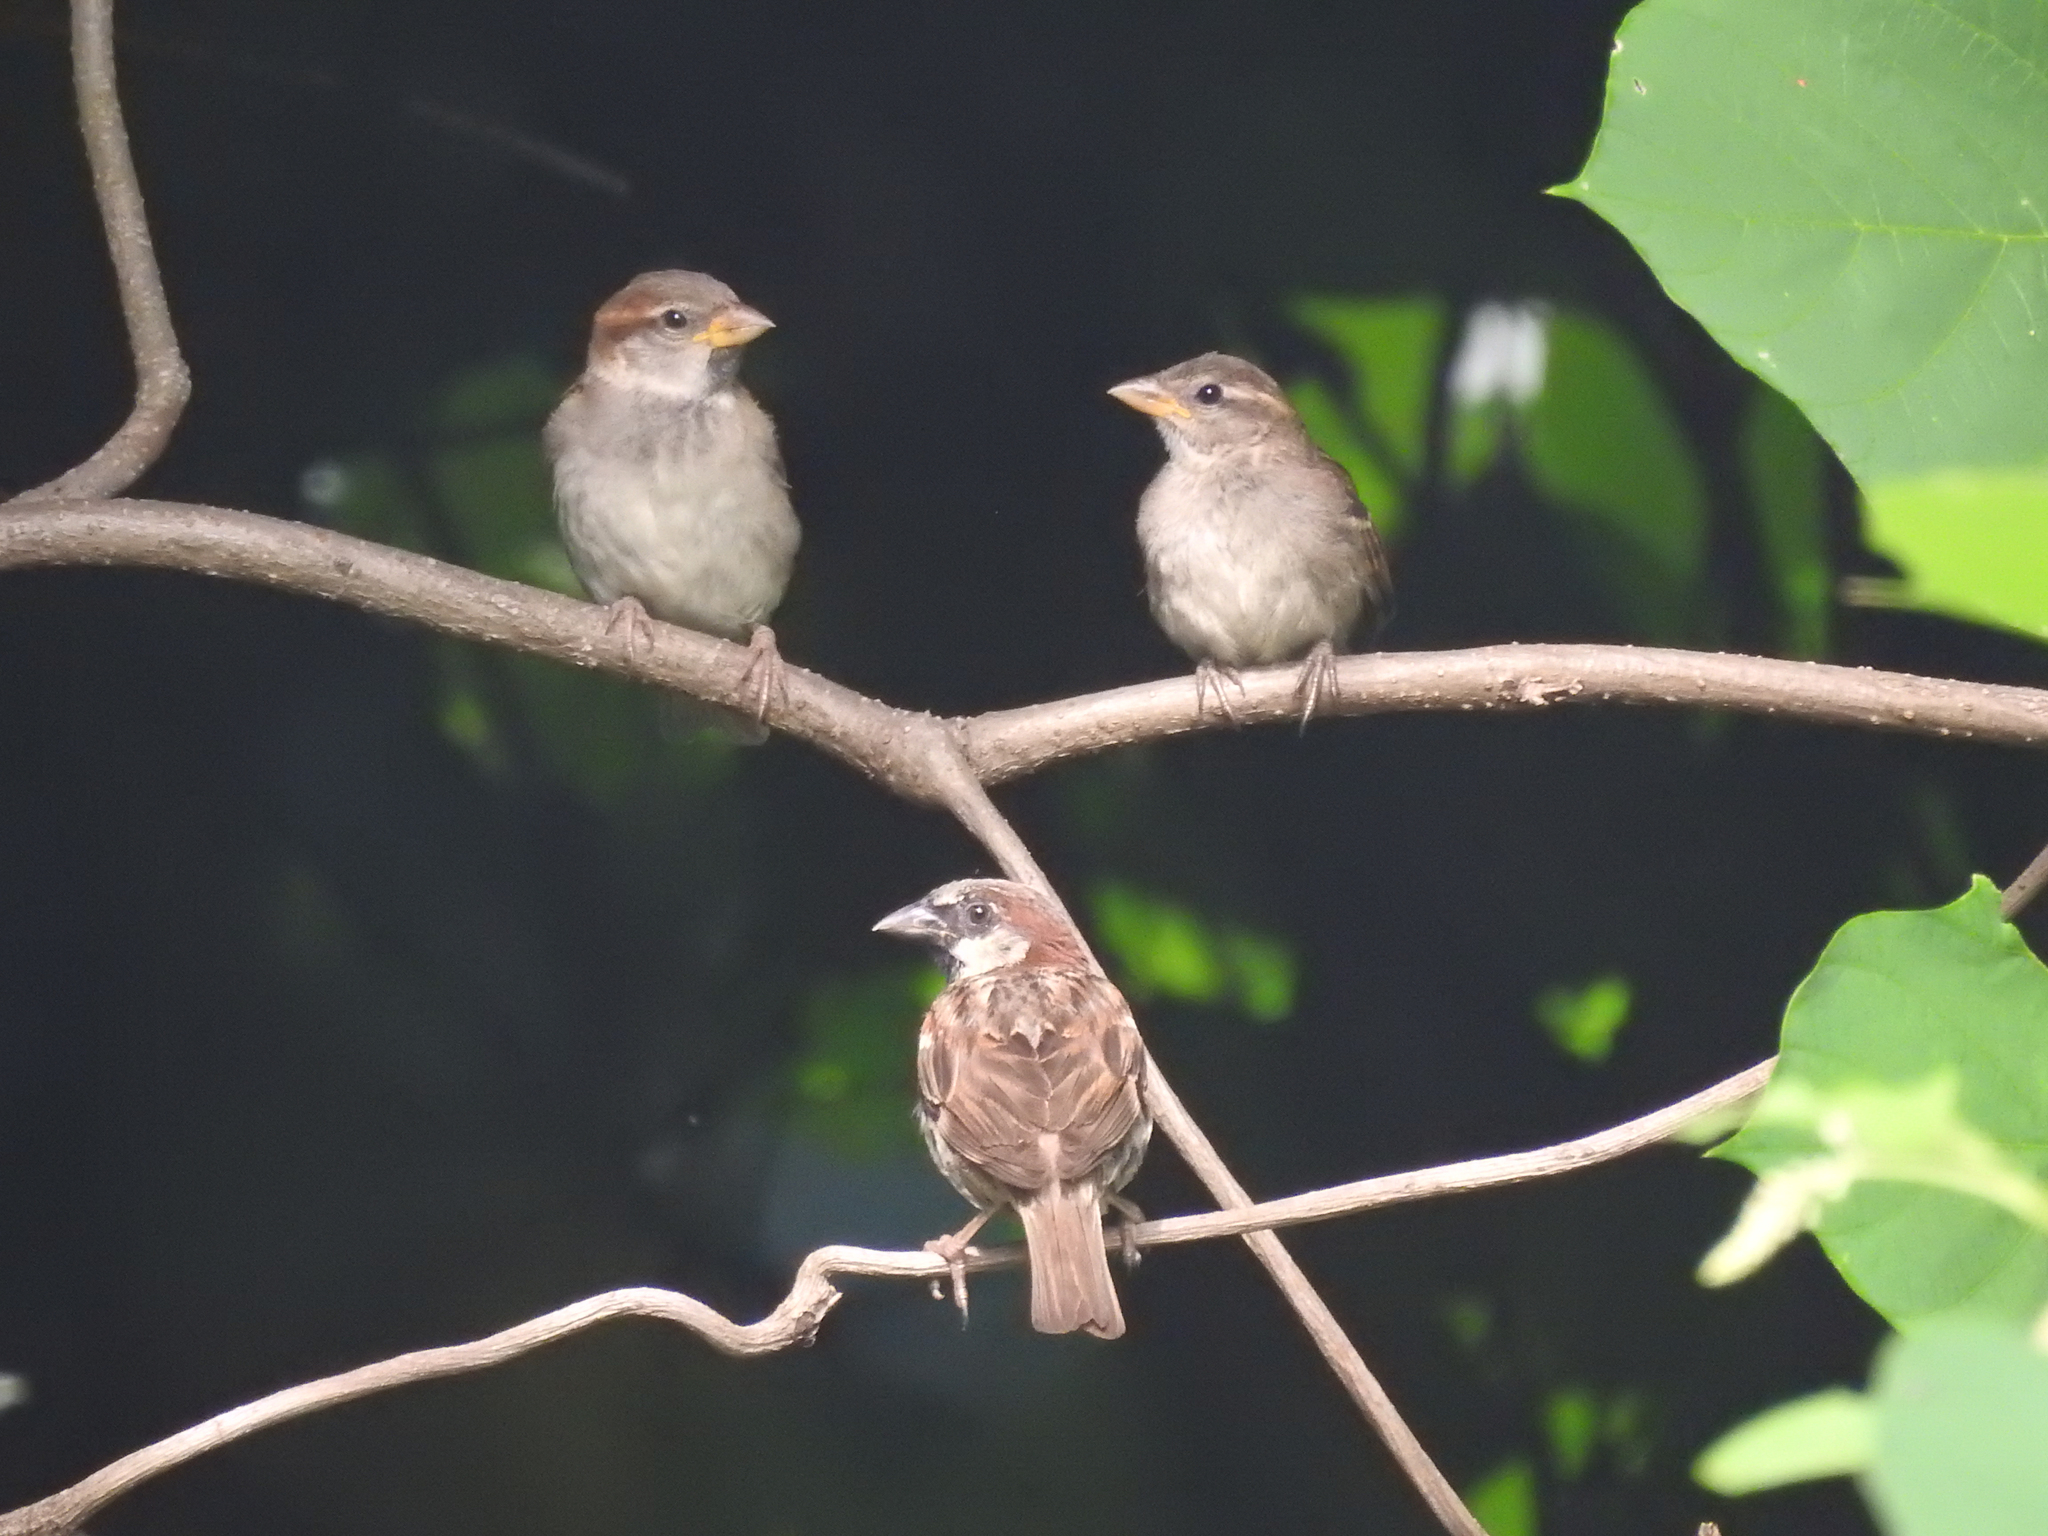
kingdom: Animalia
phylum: Chordata
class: Aves
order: Passeriformes
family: Passeridae
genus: Passer
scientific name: Passer domesticus
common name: House sparrow
